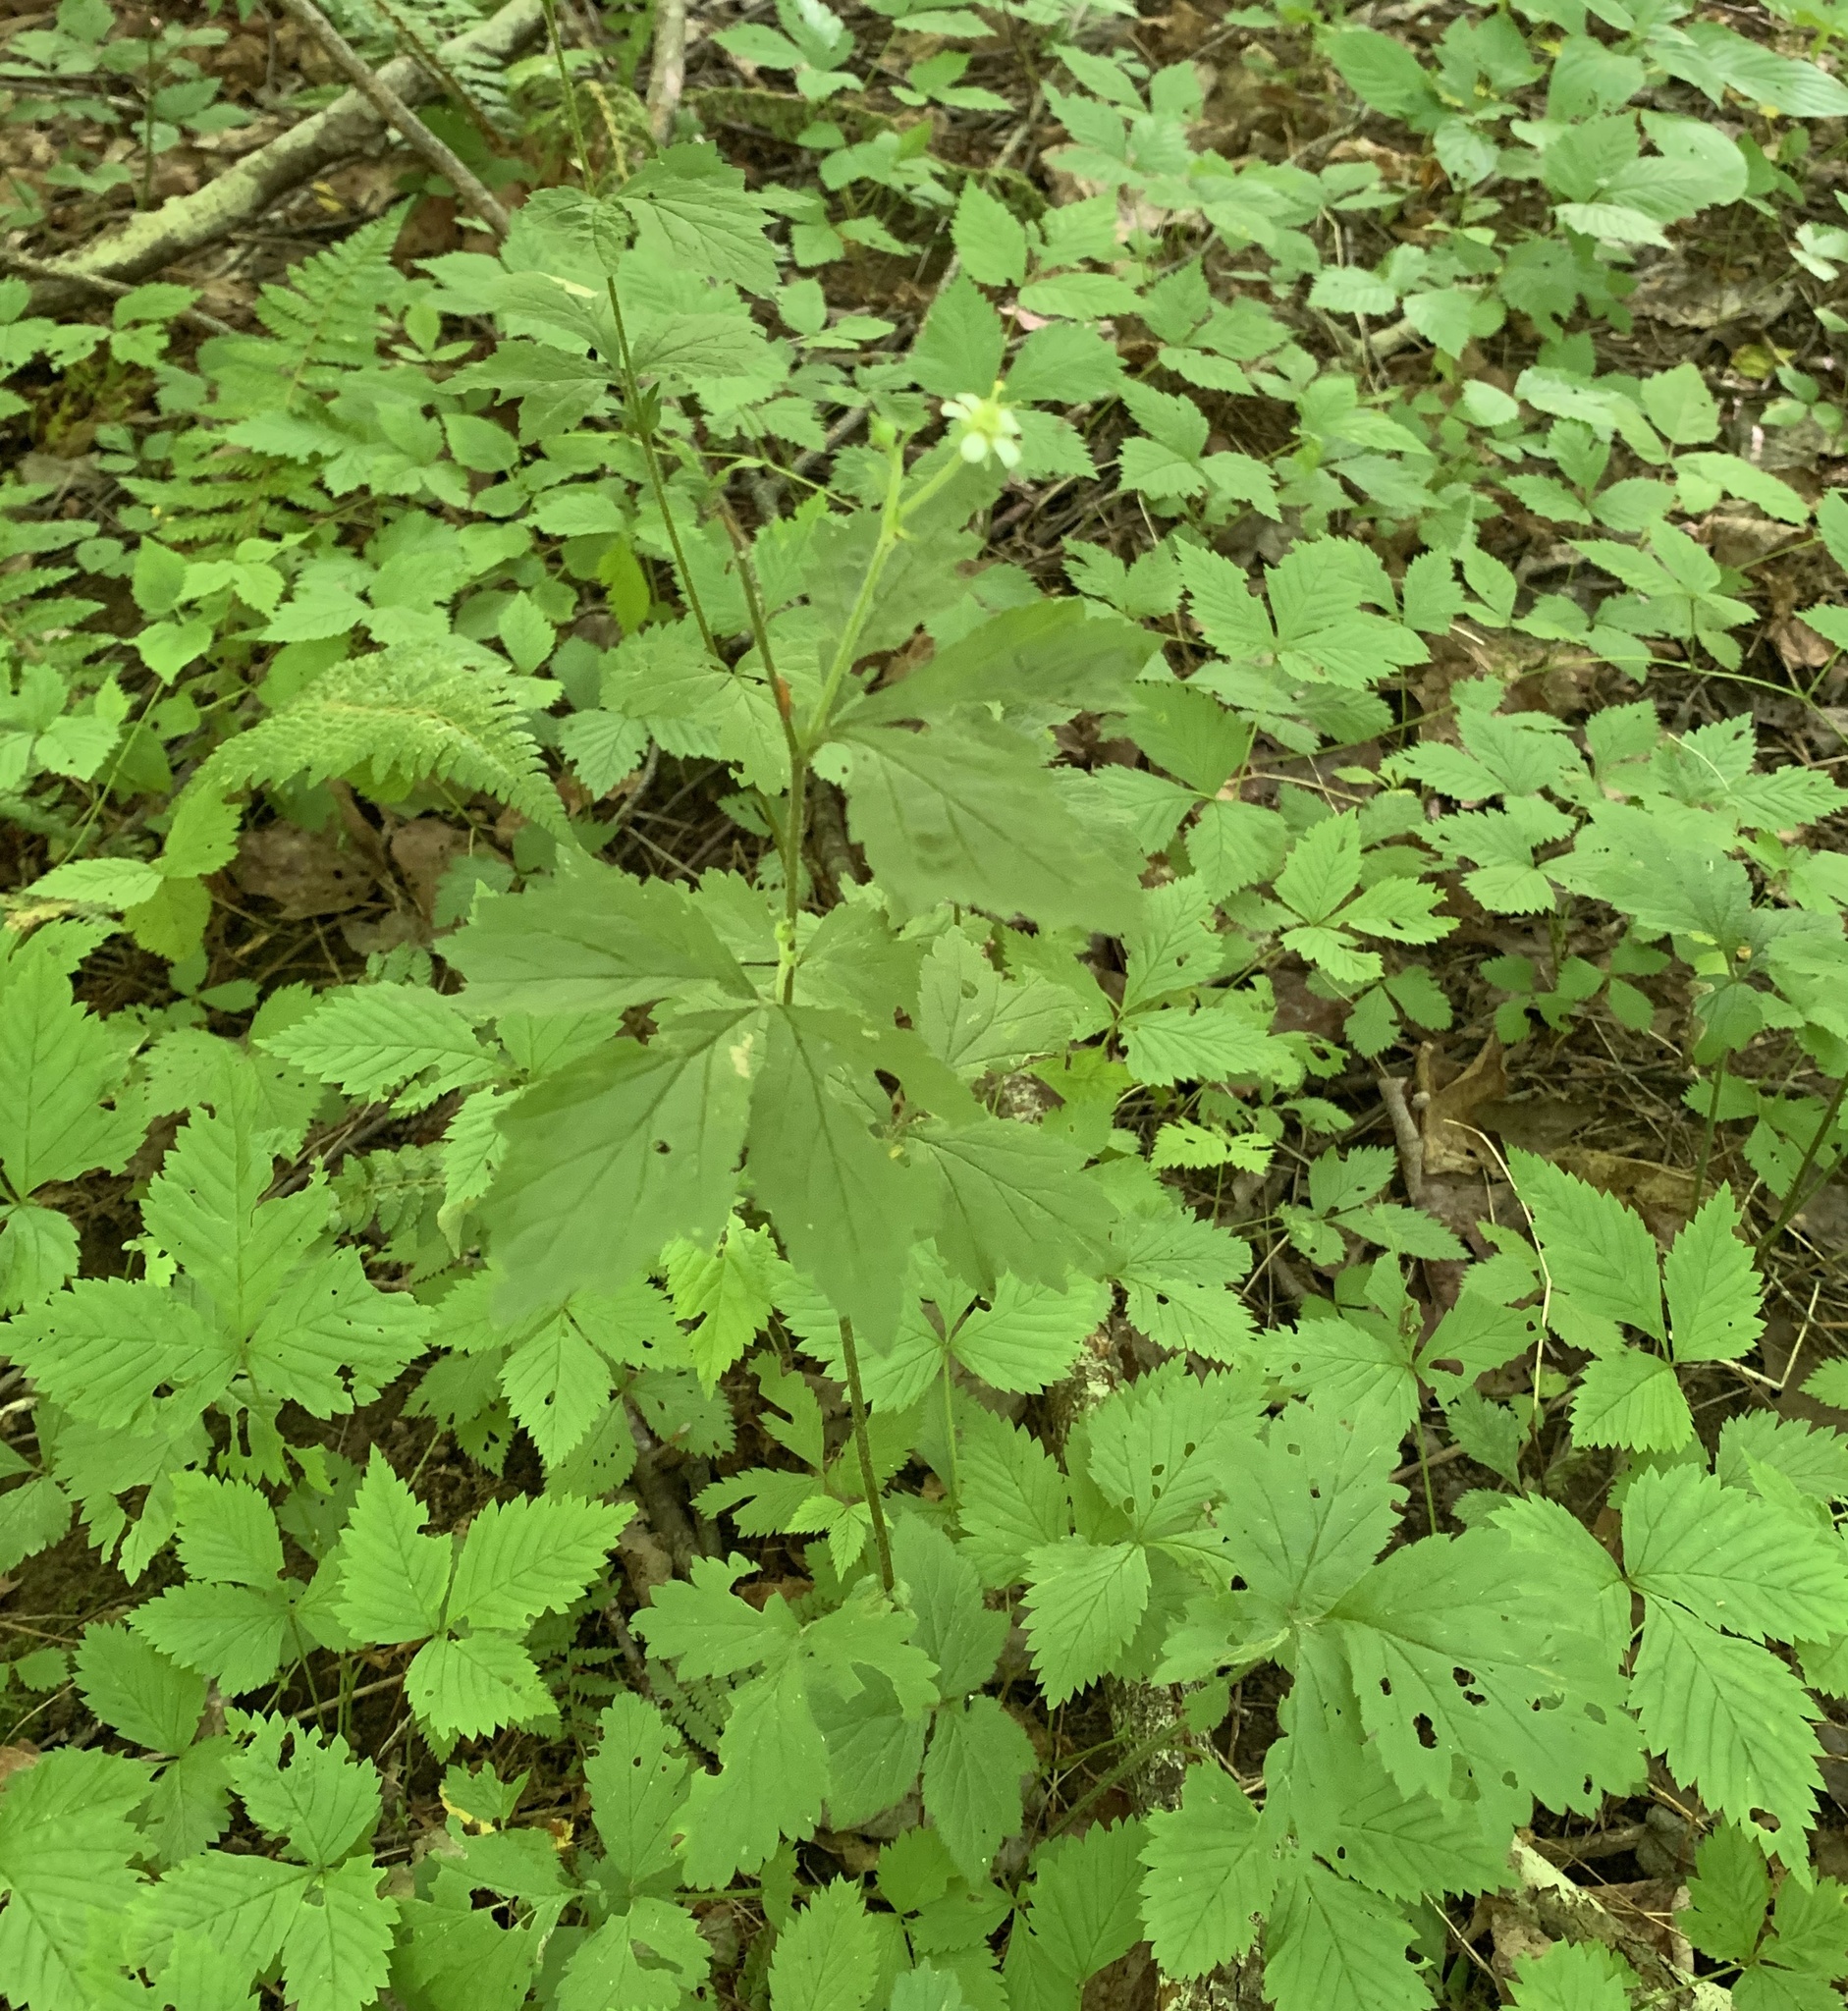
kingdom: Plantae
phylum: Tracheophyta
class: Magnoliopsida
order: Rosales
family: Rosaceae
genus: Geum
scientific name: Geum canadense
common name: White avens
